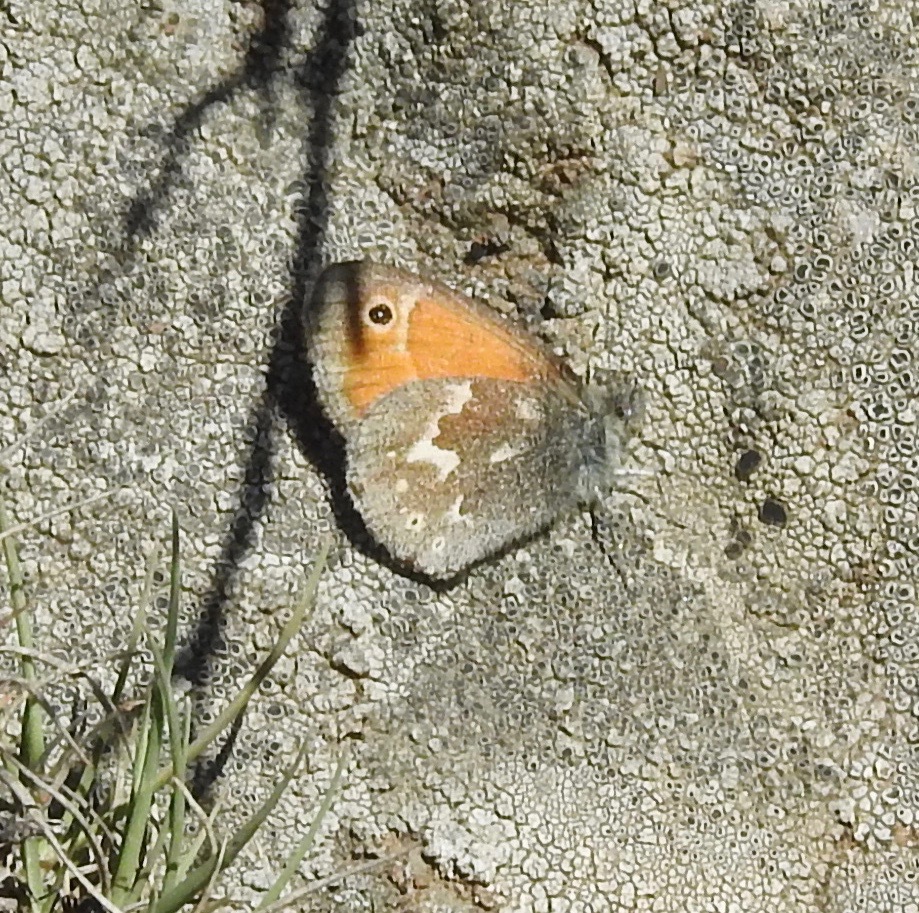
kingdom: Animalia
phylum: Arthropoda
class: Insecta
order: Lepidoptera
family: Nymphalidae
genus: Coenonympha
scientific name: Coenonympha california
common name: Common ringlet
